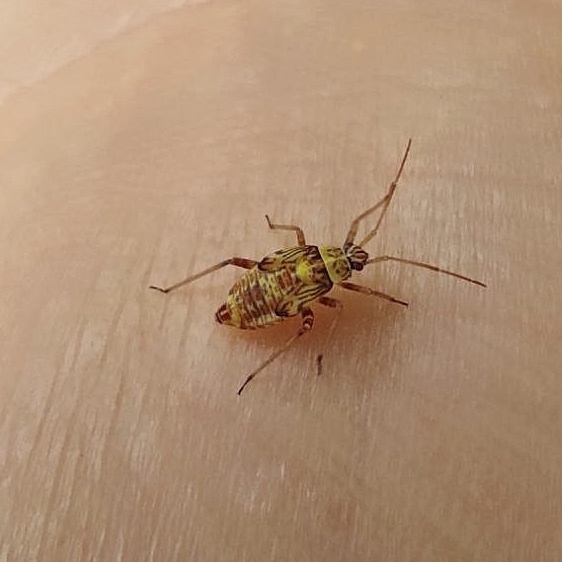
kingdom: Animalia
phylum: Arthropoda
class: Insecta
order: Hemiptera
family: Miridae
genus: Rhabdomiris
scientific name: Rhabdomiris striatellus
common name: Plant bug
